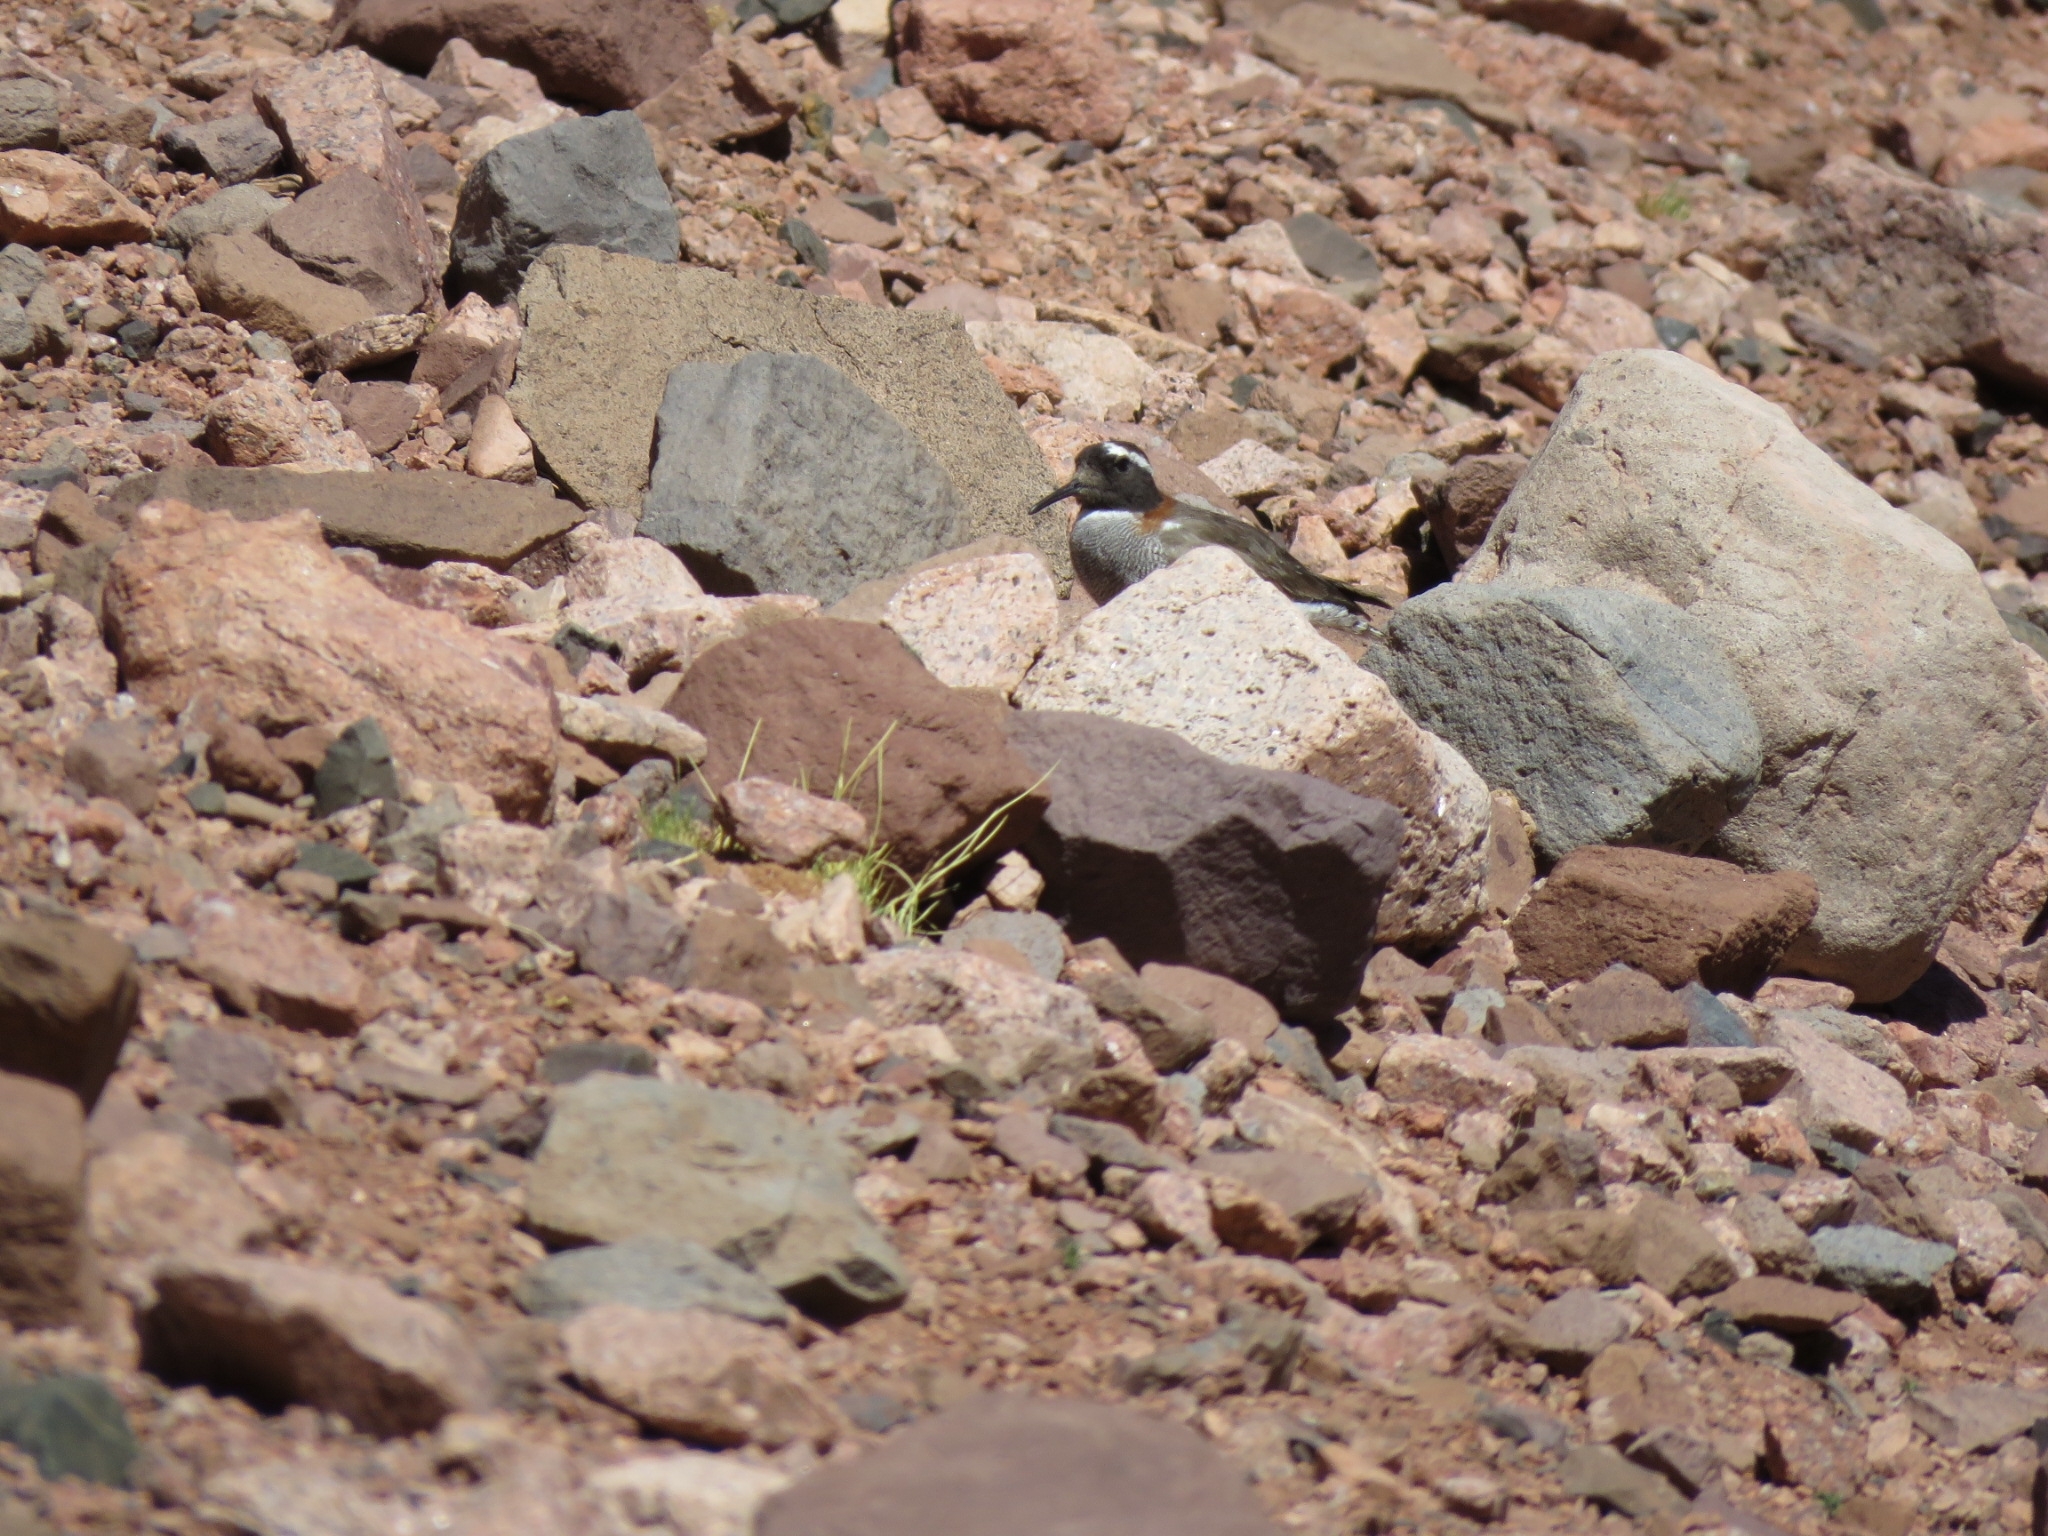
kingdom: Animalia
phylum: Chordata
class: Aves
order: Charadriiformes
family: Charadriidae
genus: Phegornis
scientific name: Phegornis mitchellii
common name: Diademed sandpiper-plover
